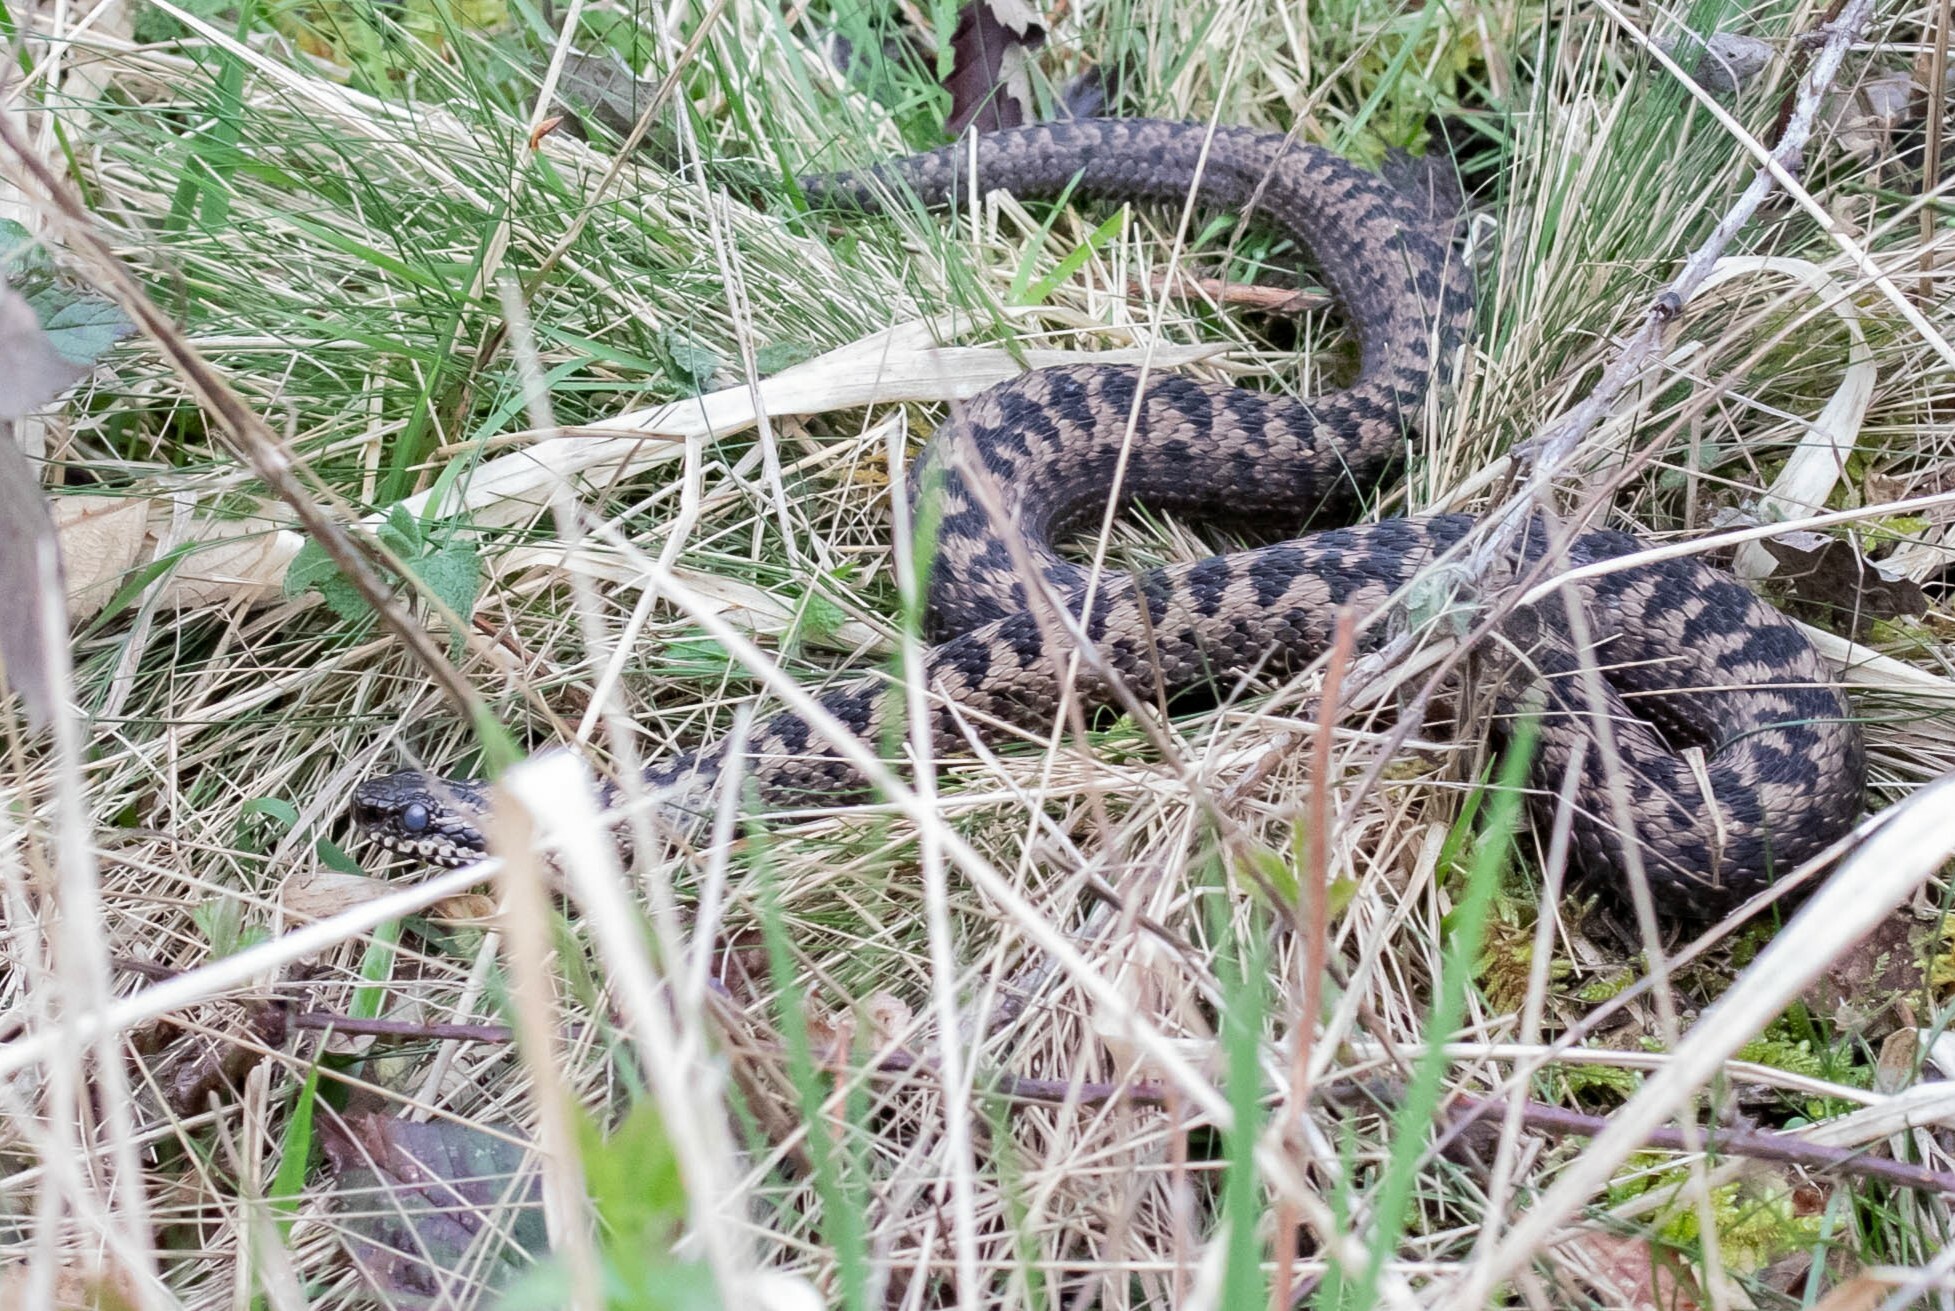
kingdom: Animalia
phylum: Chordata
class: Squamata
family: Viperidae
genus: Vipera
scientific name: Vipera berus
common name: Adder
